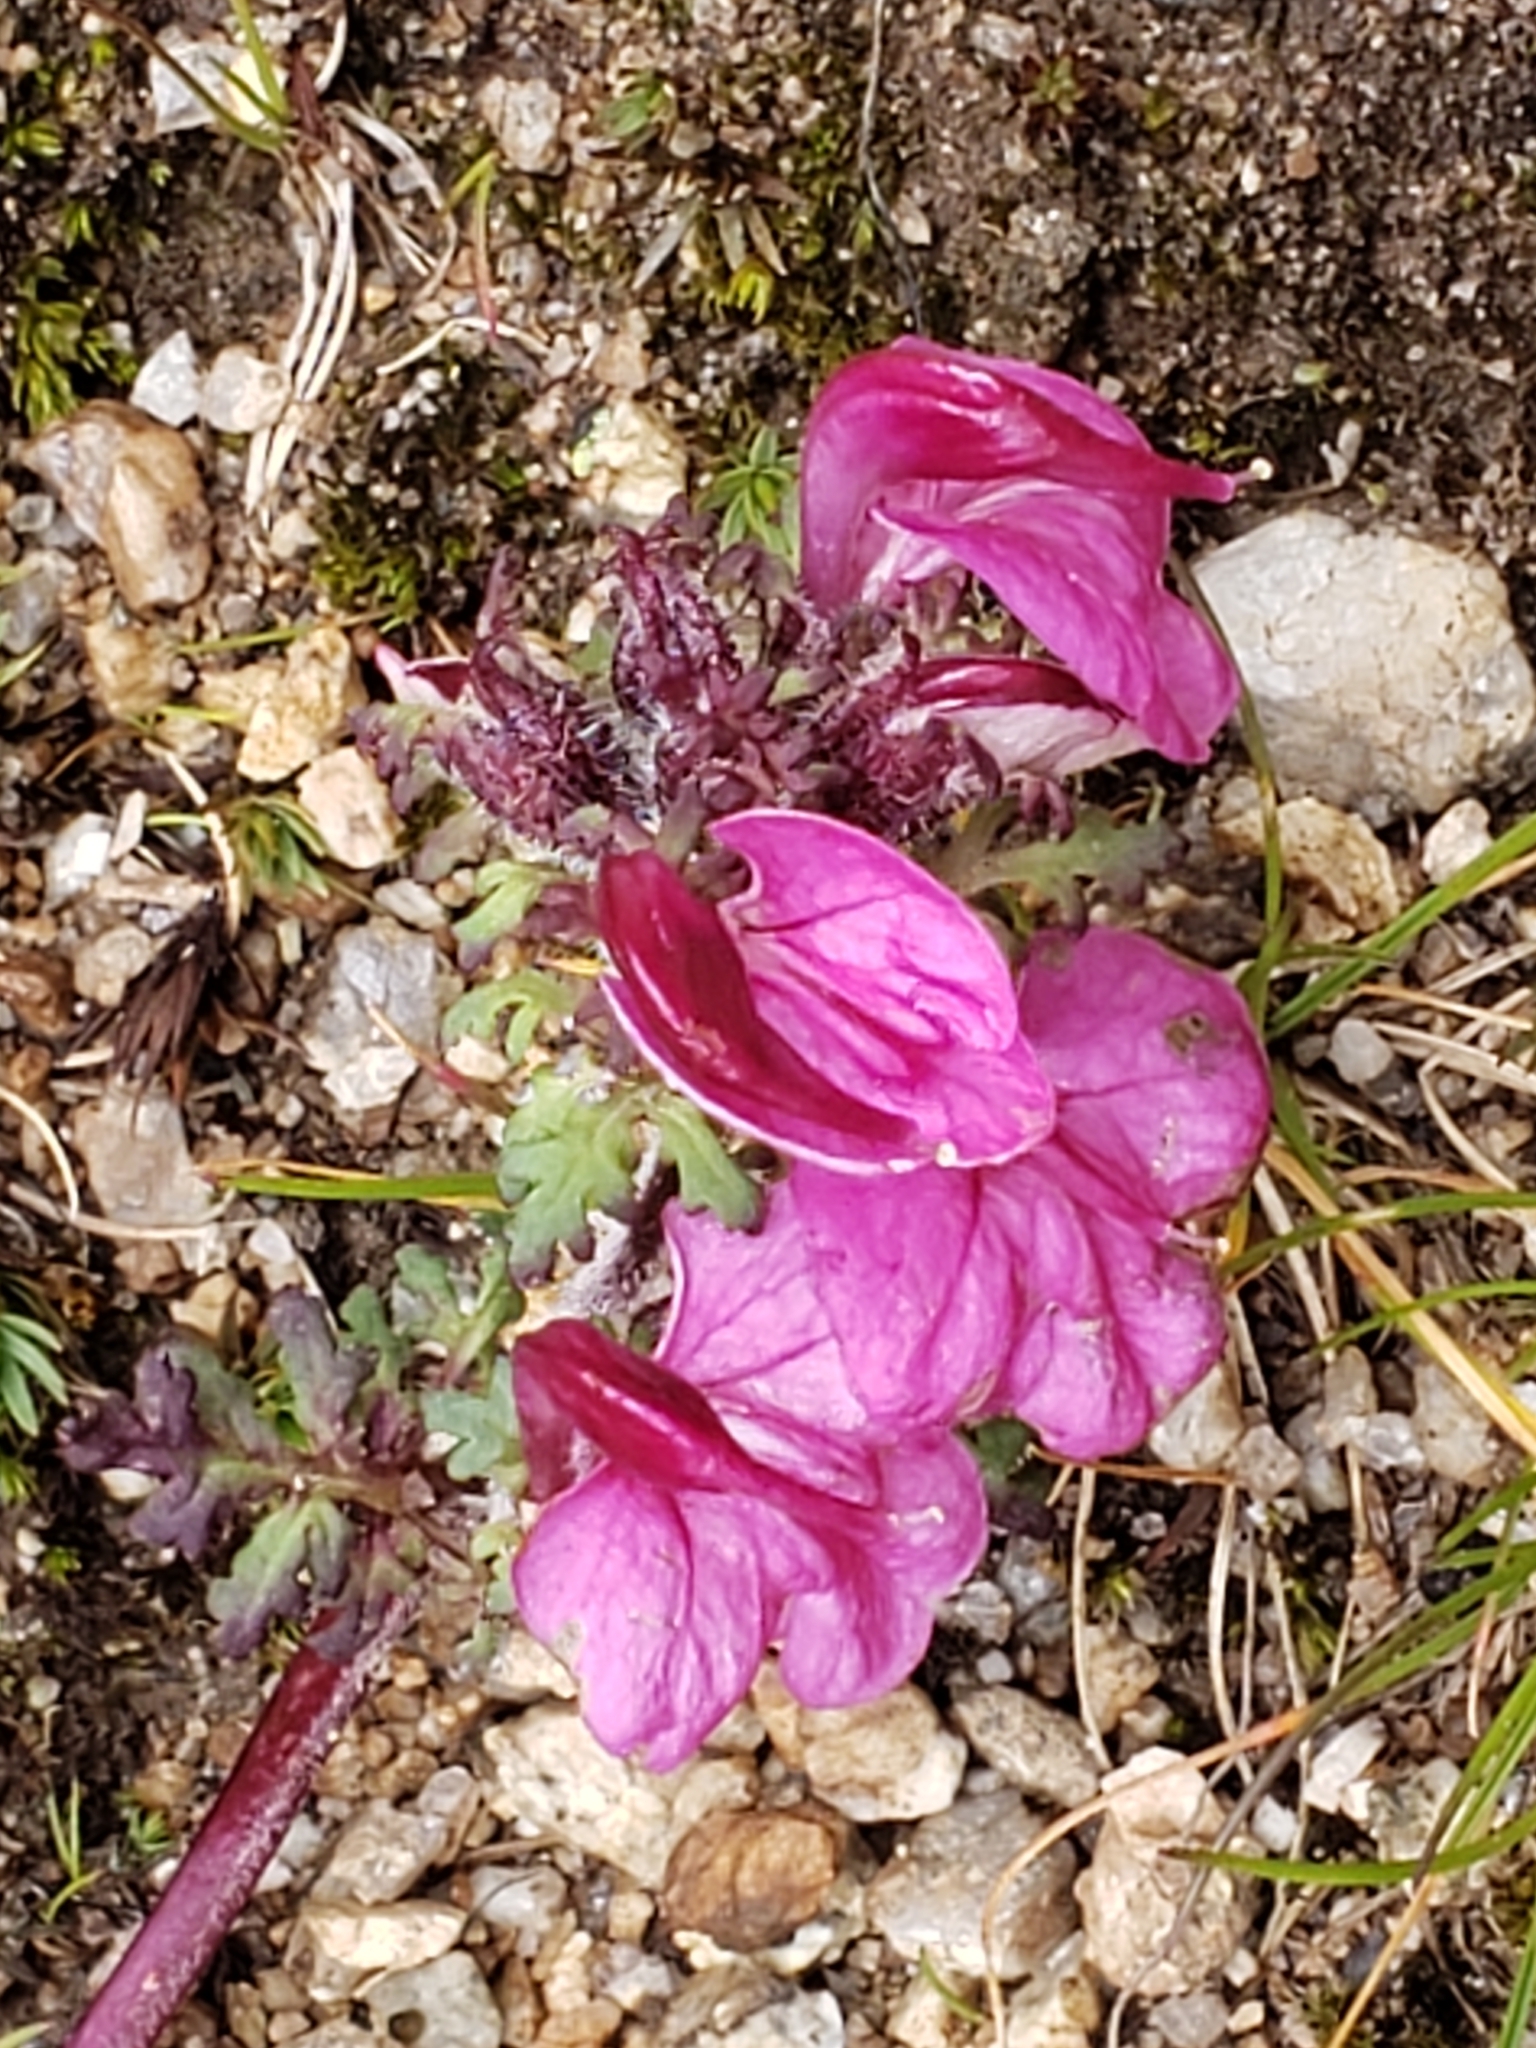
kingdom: Plantae
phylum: Tracheophyta
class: Magnoliopsida
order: Lamiales
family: Orobanchaceae
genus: Pedicularis
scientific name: Pedicularis kerneri
